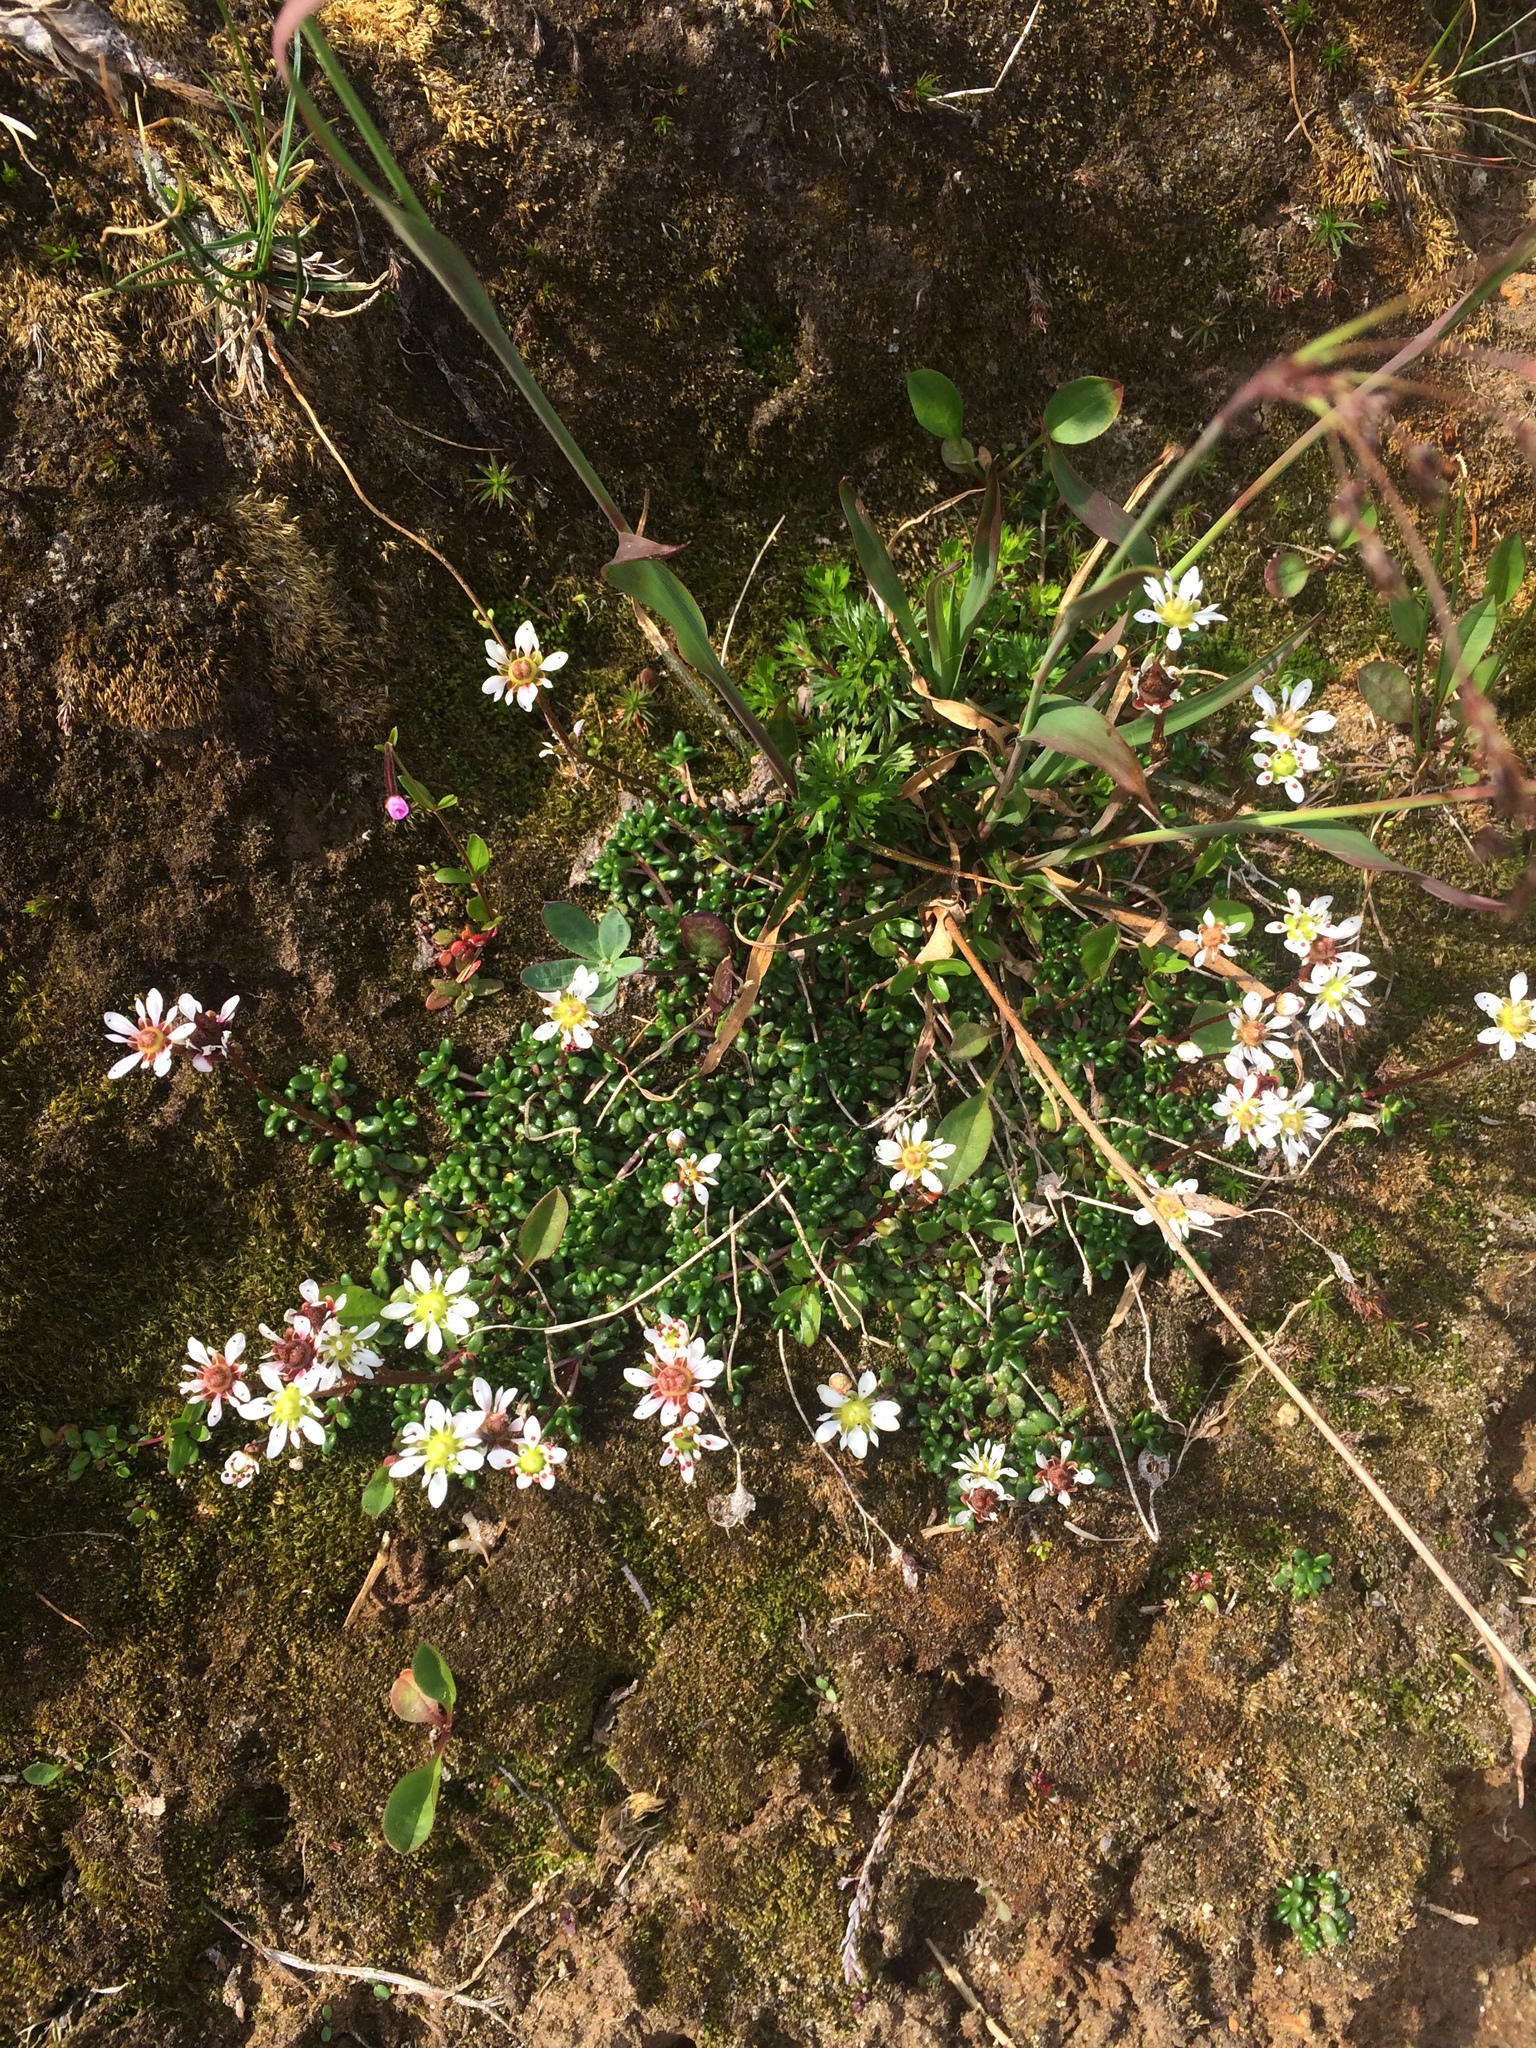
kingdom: Plantae
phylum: Tracheophyta
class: Magnoliopsida
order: Saxifragales
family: Saxifragaceae
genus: Micranthes
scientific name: Micranthes tolmiei
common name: Tolmie's saxifrage
